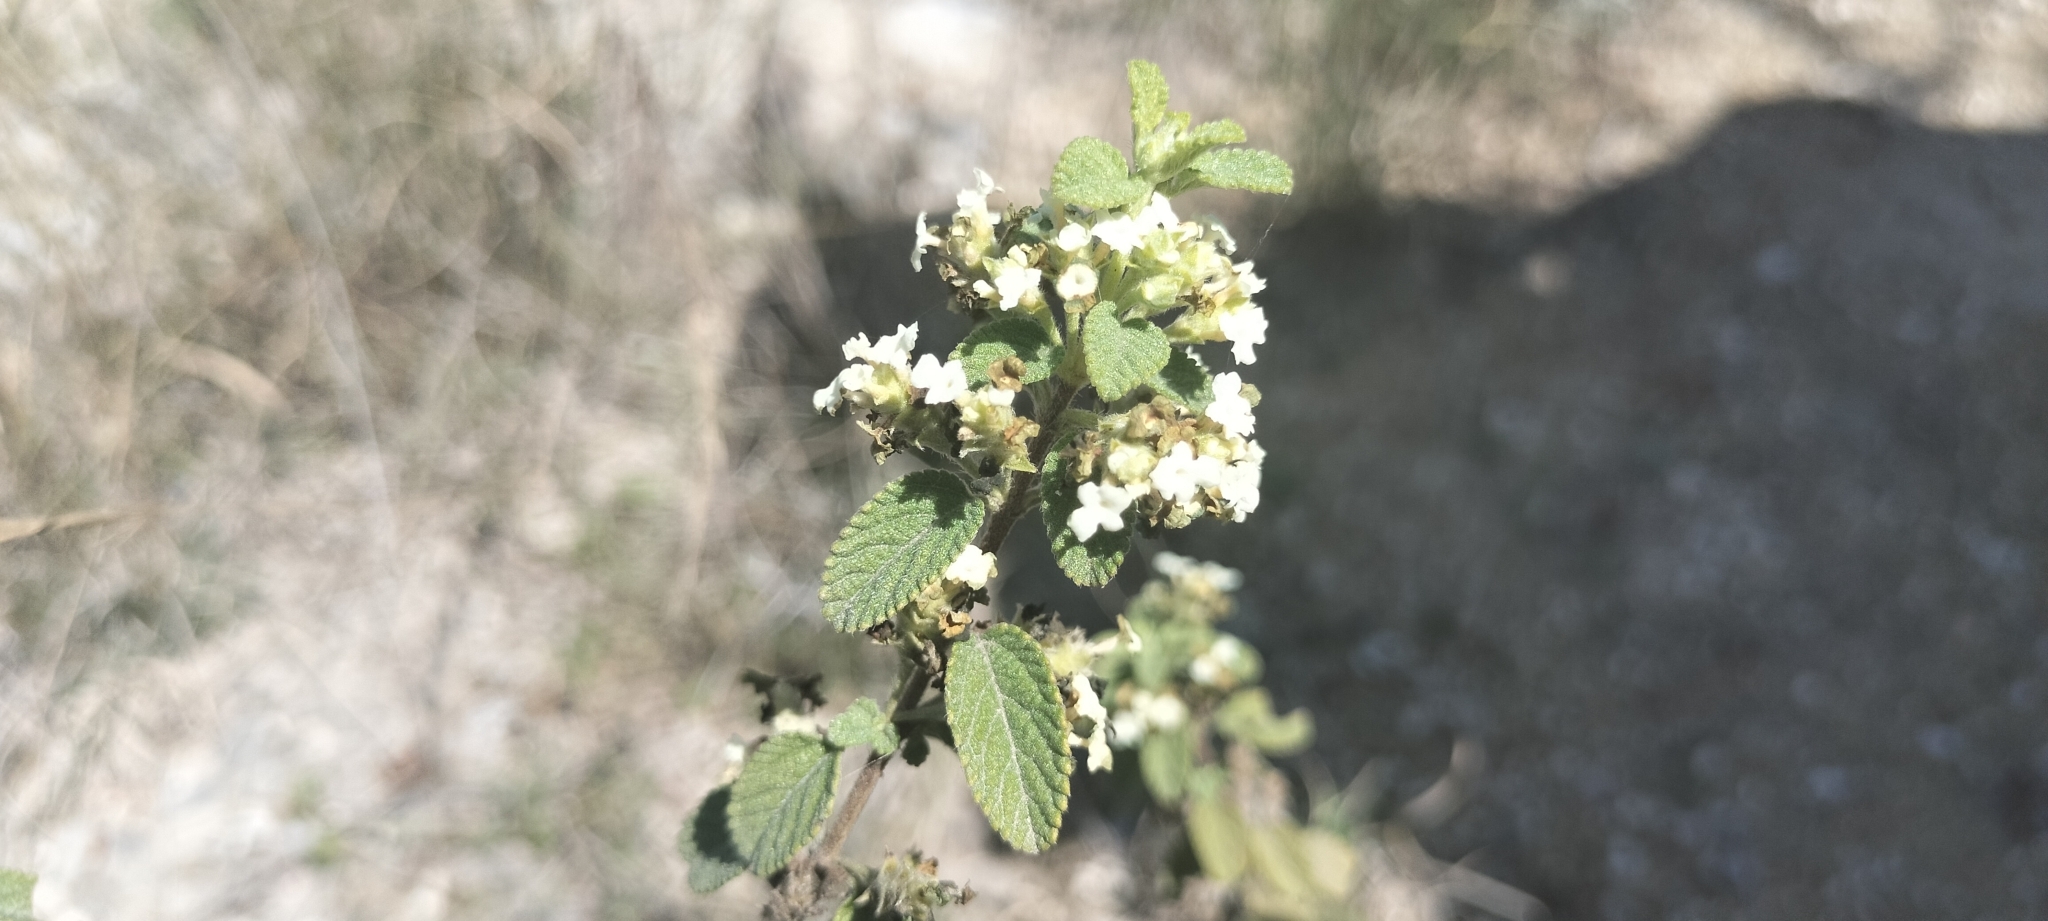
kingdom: Plantae
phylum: Tracheophyta
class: Magnoliopsida
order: Lamiales
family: Verbenaceae
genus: Lippia
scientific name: Lippia origanoides
